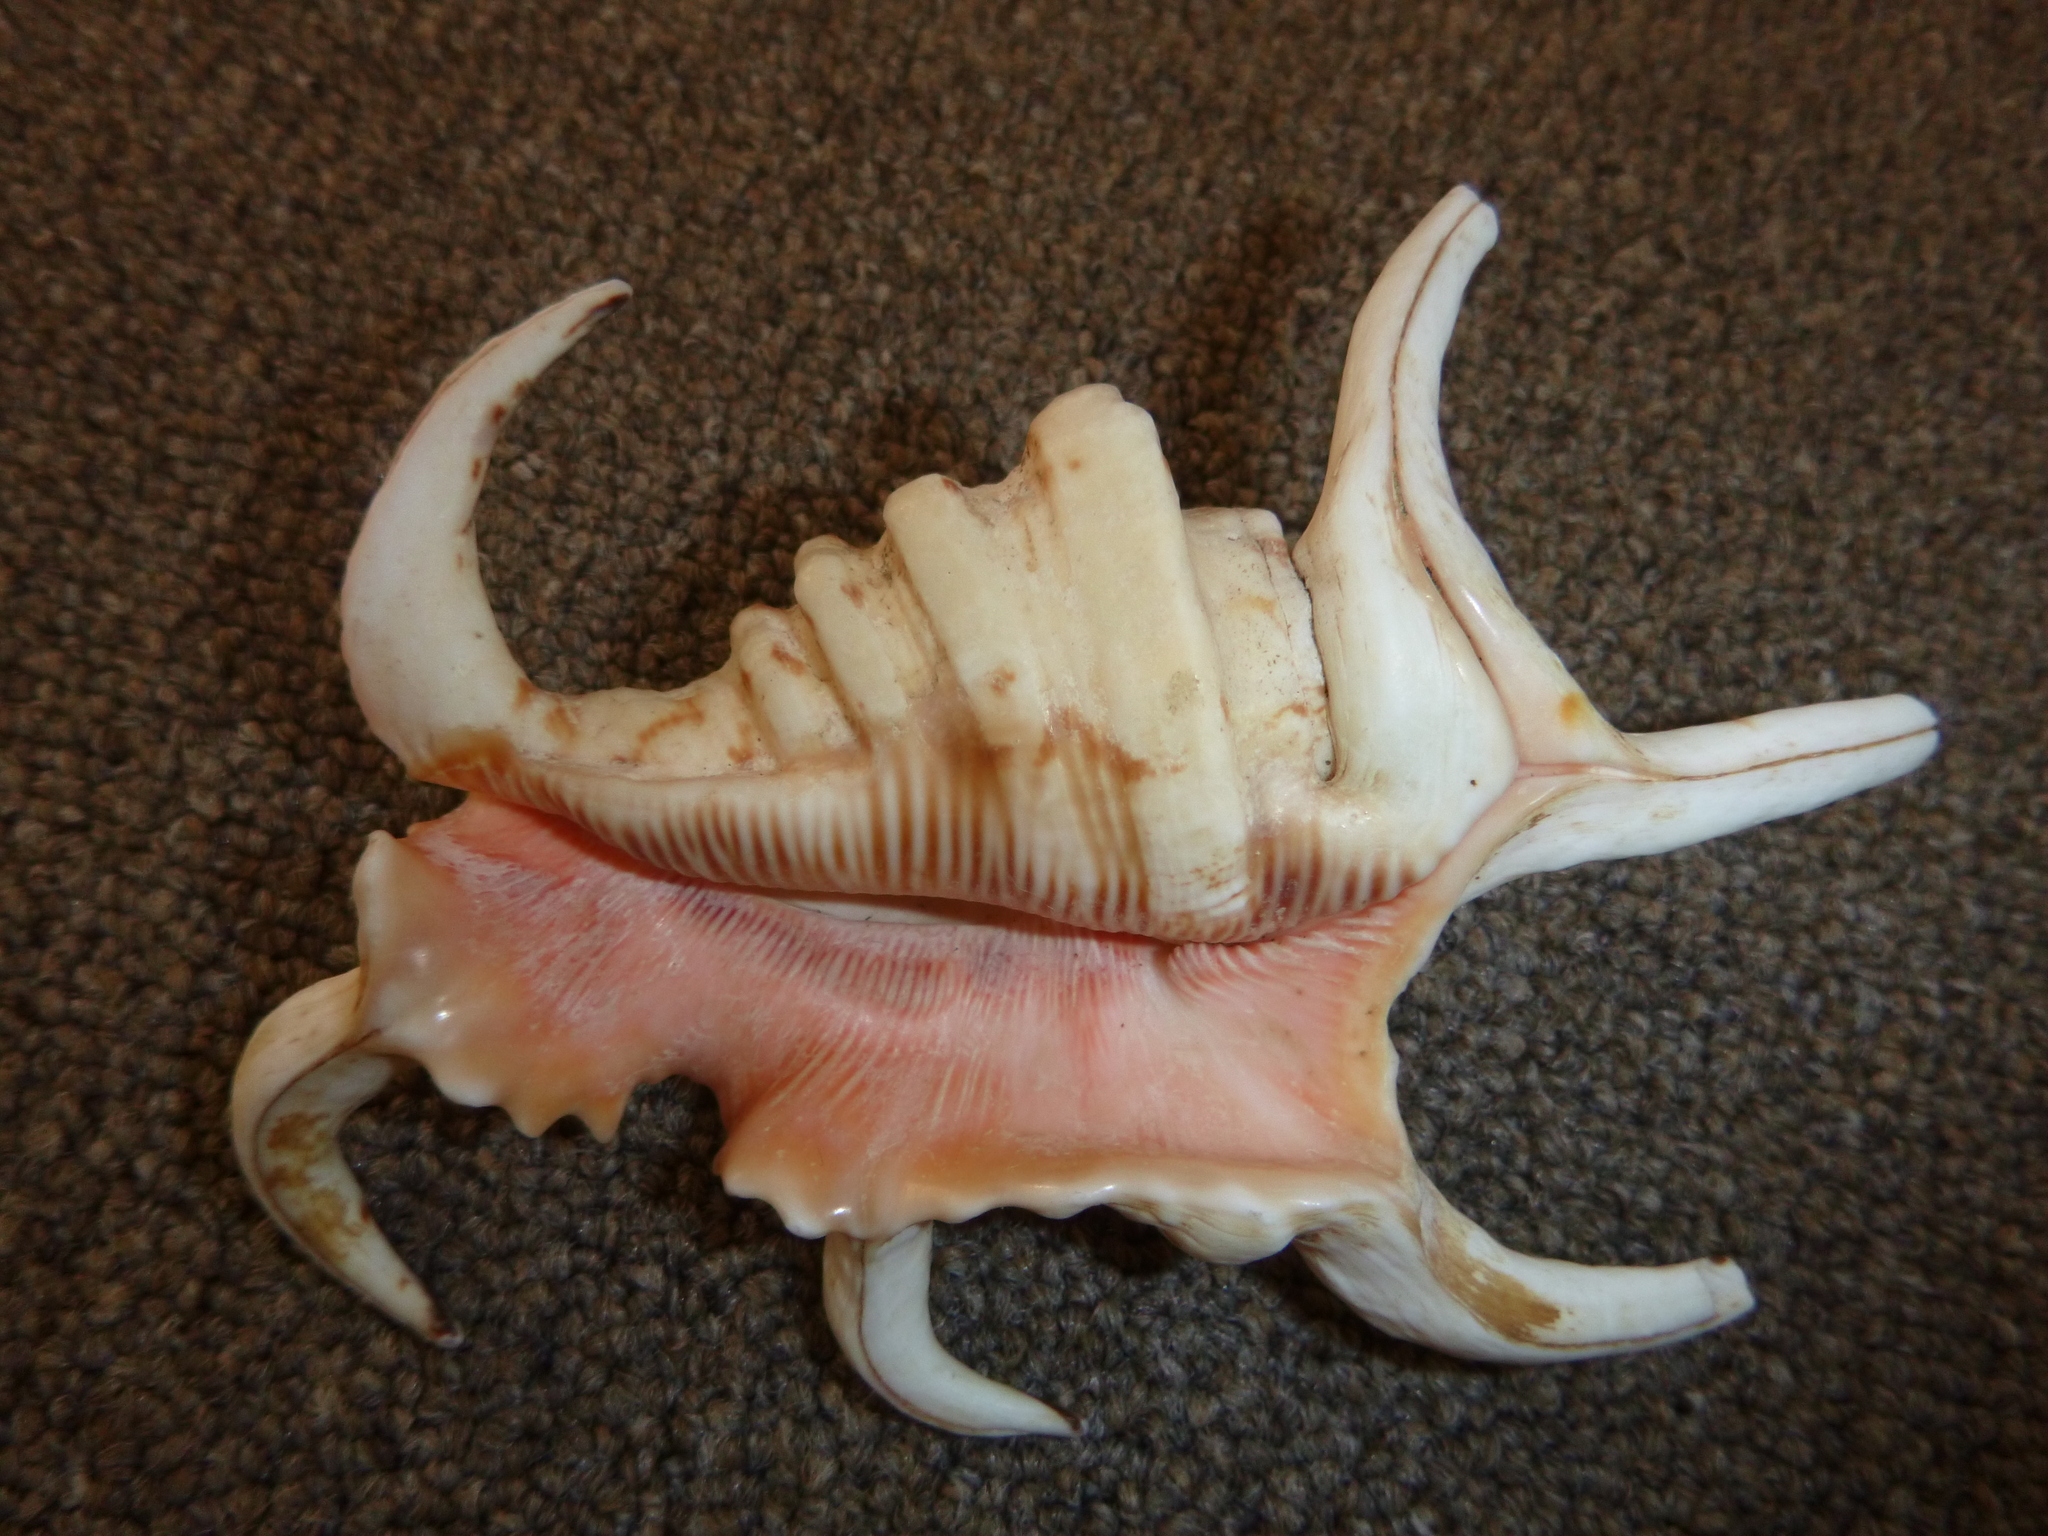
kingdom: Animalia
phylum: Mollusca
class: Gastropoda
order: Littorinimorpha
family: Strombidae
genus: Harpago
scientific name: Harpago chiragra
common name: Chiragra spider conch
